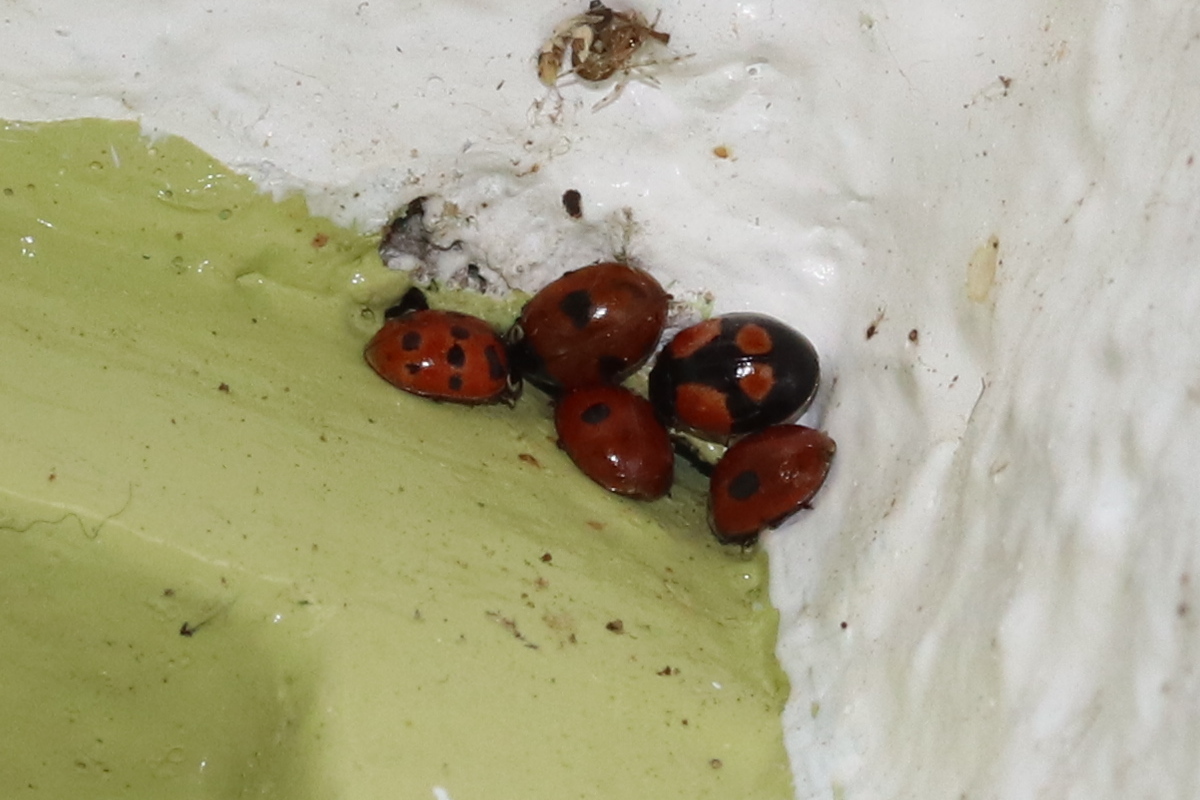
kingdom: Animalia
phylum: Arthropoda
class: Insecta
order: Coleoptera
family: Coccinellidae
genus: Adalia
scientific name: Adalia bipunctata
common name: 2-spot ladybird
